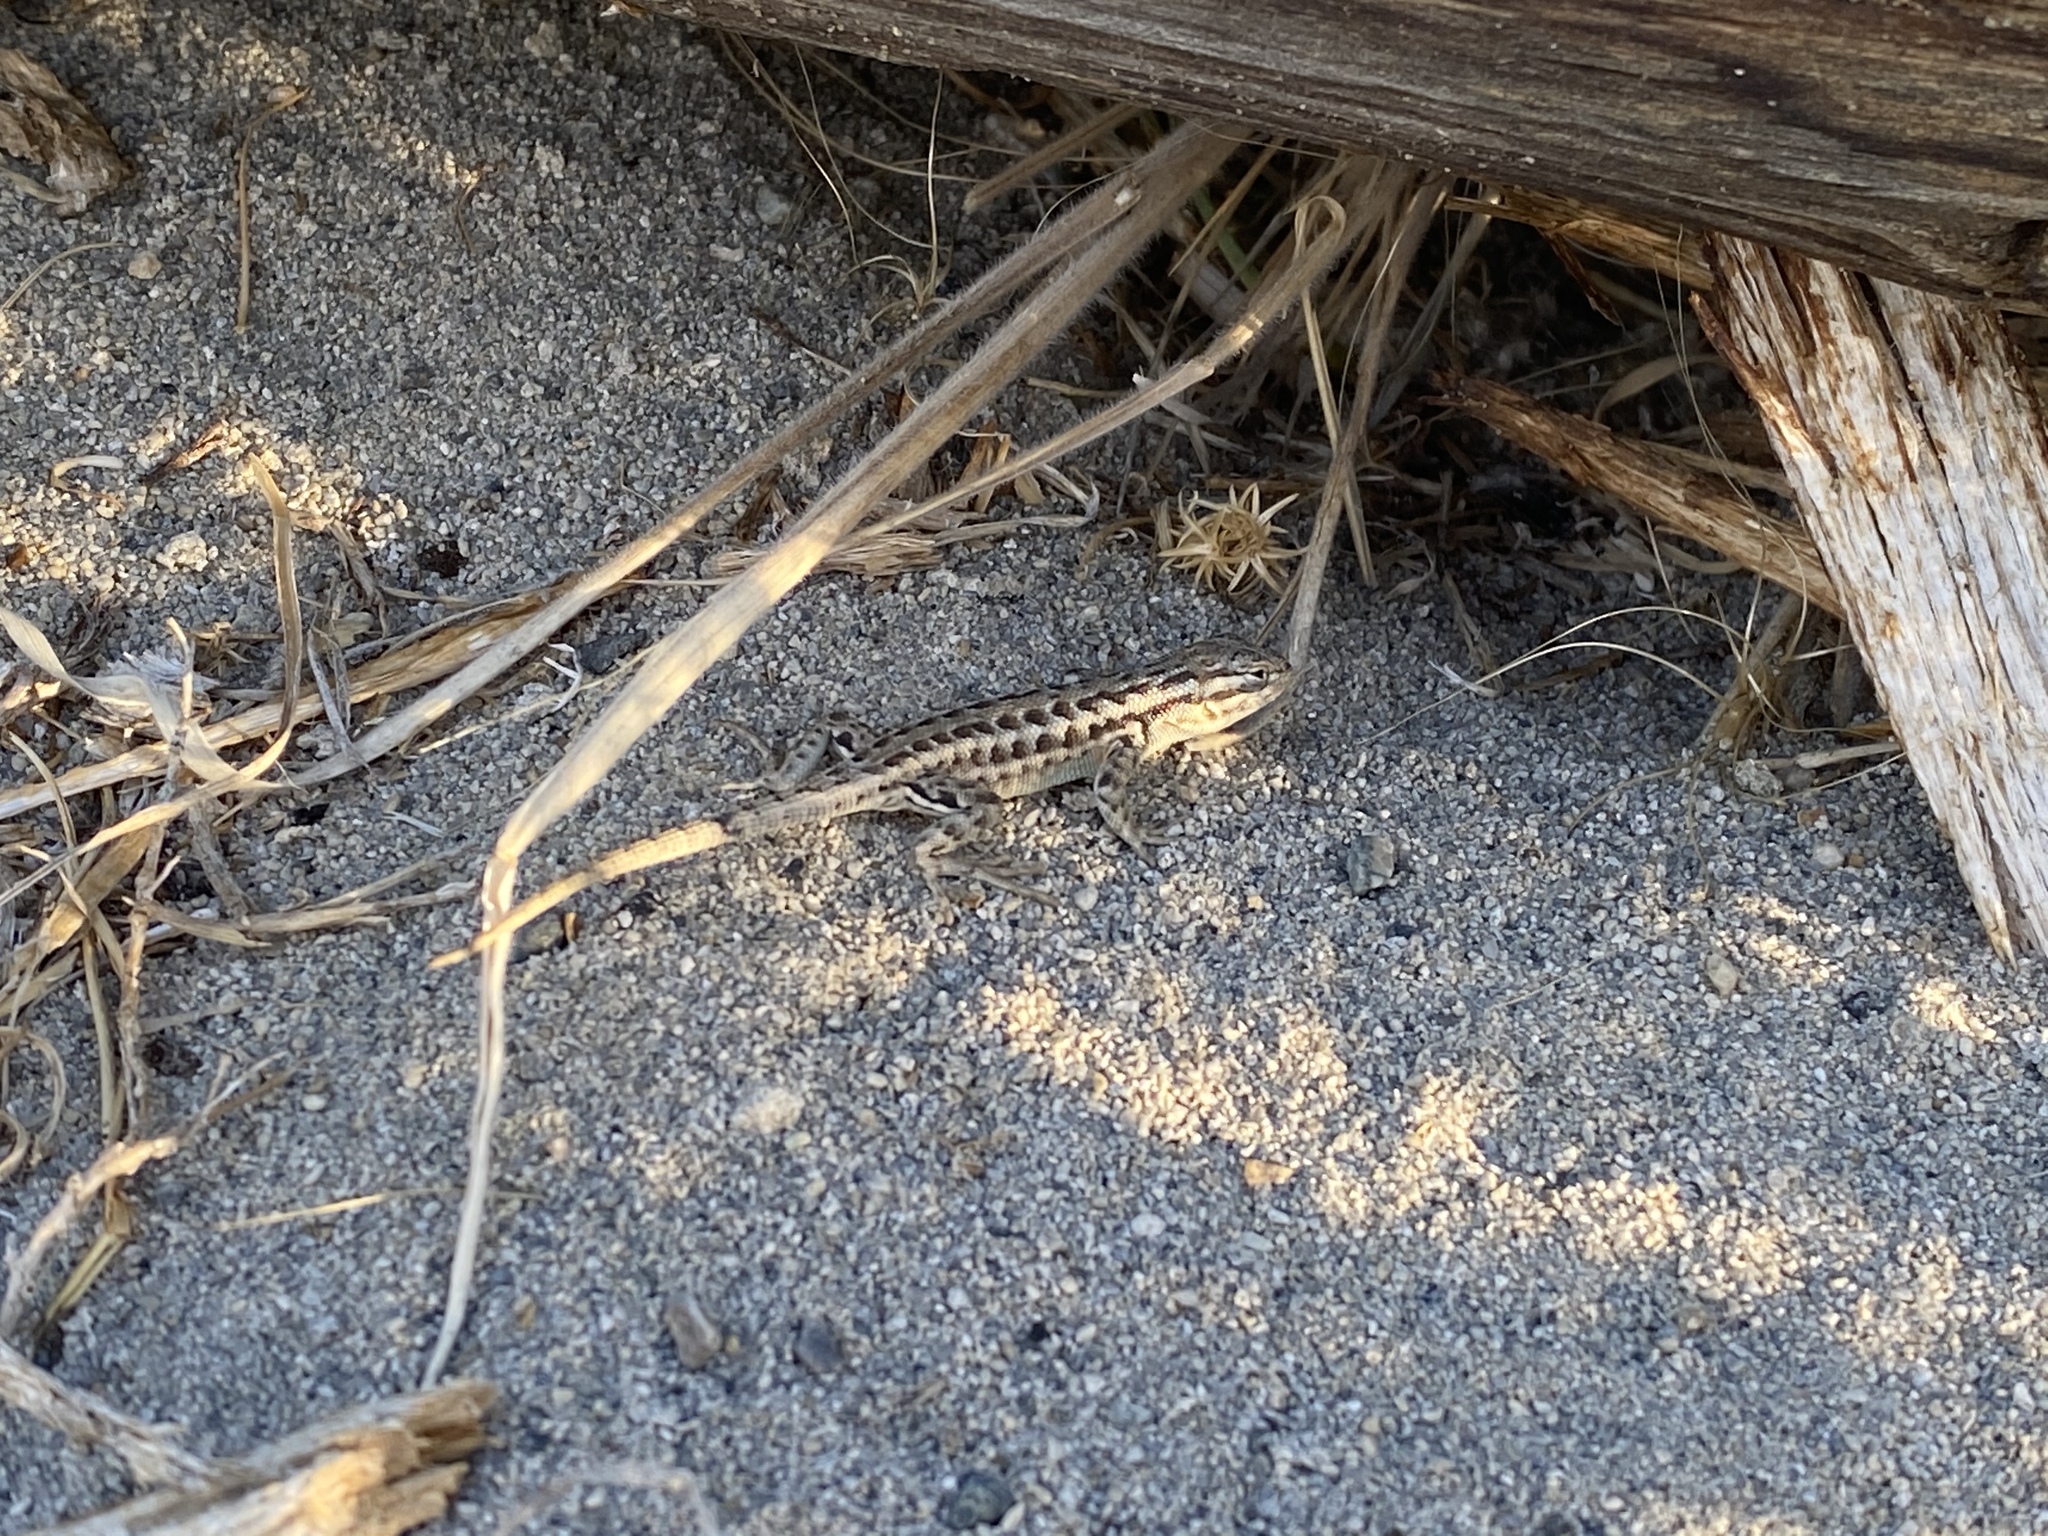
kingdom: Animalia
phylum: Chordata
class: Squamata
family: Phrynosomatidae
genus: Sceloporus
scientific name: Sceloporus graciosus
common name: Sagebrush lizard
